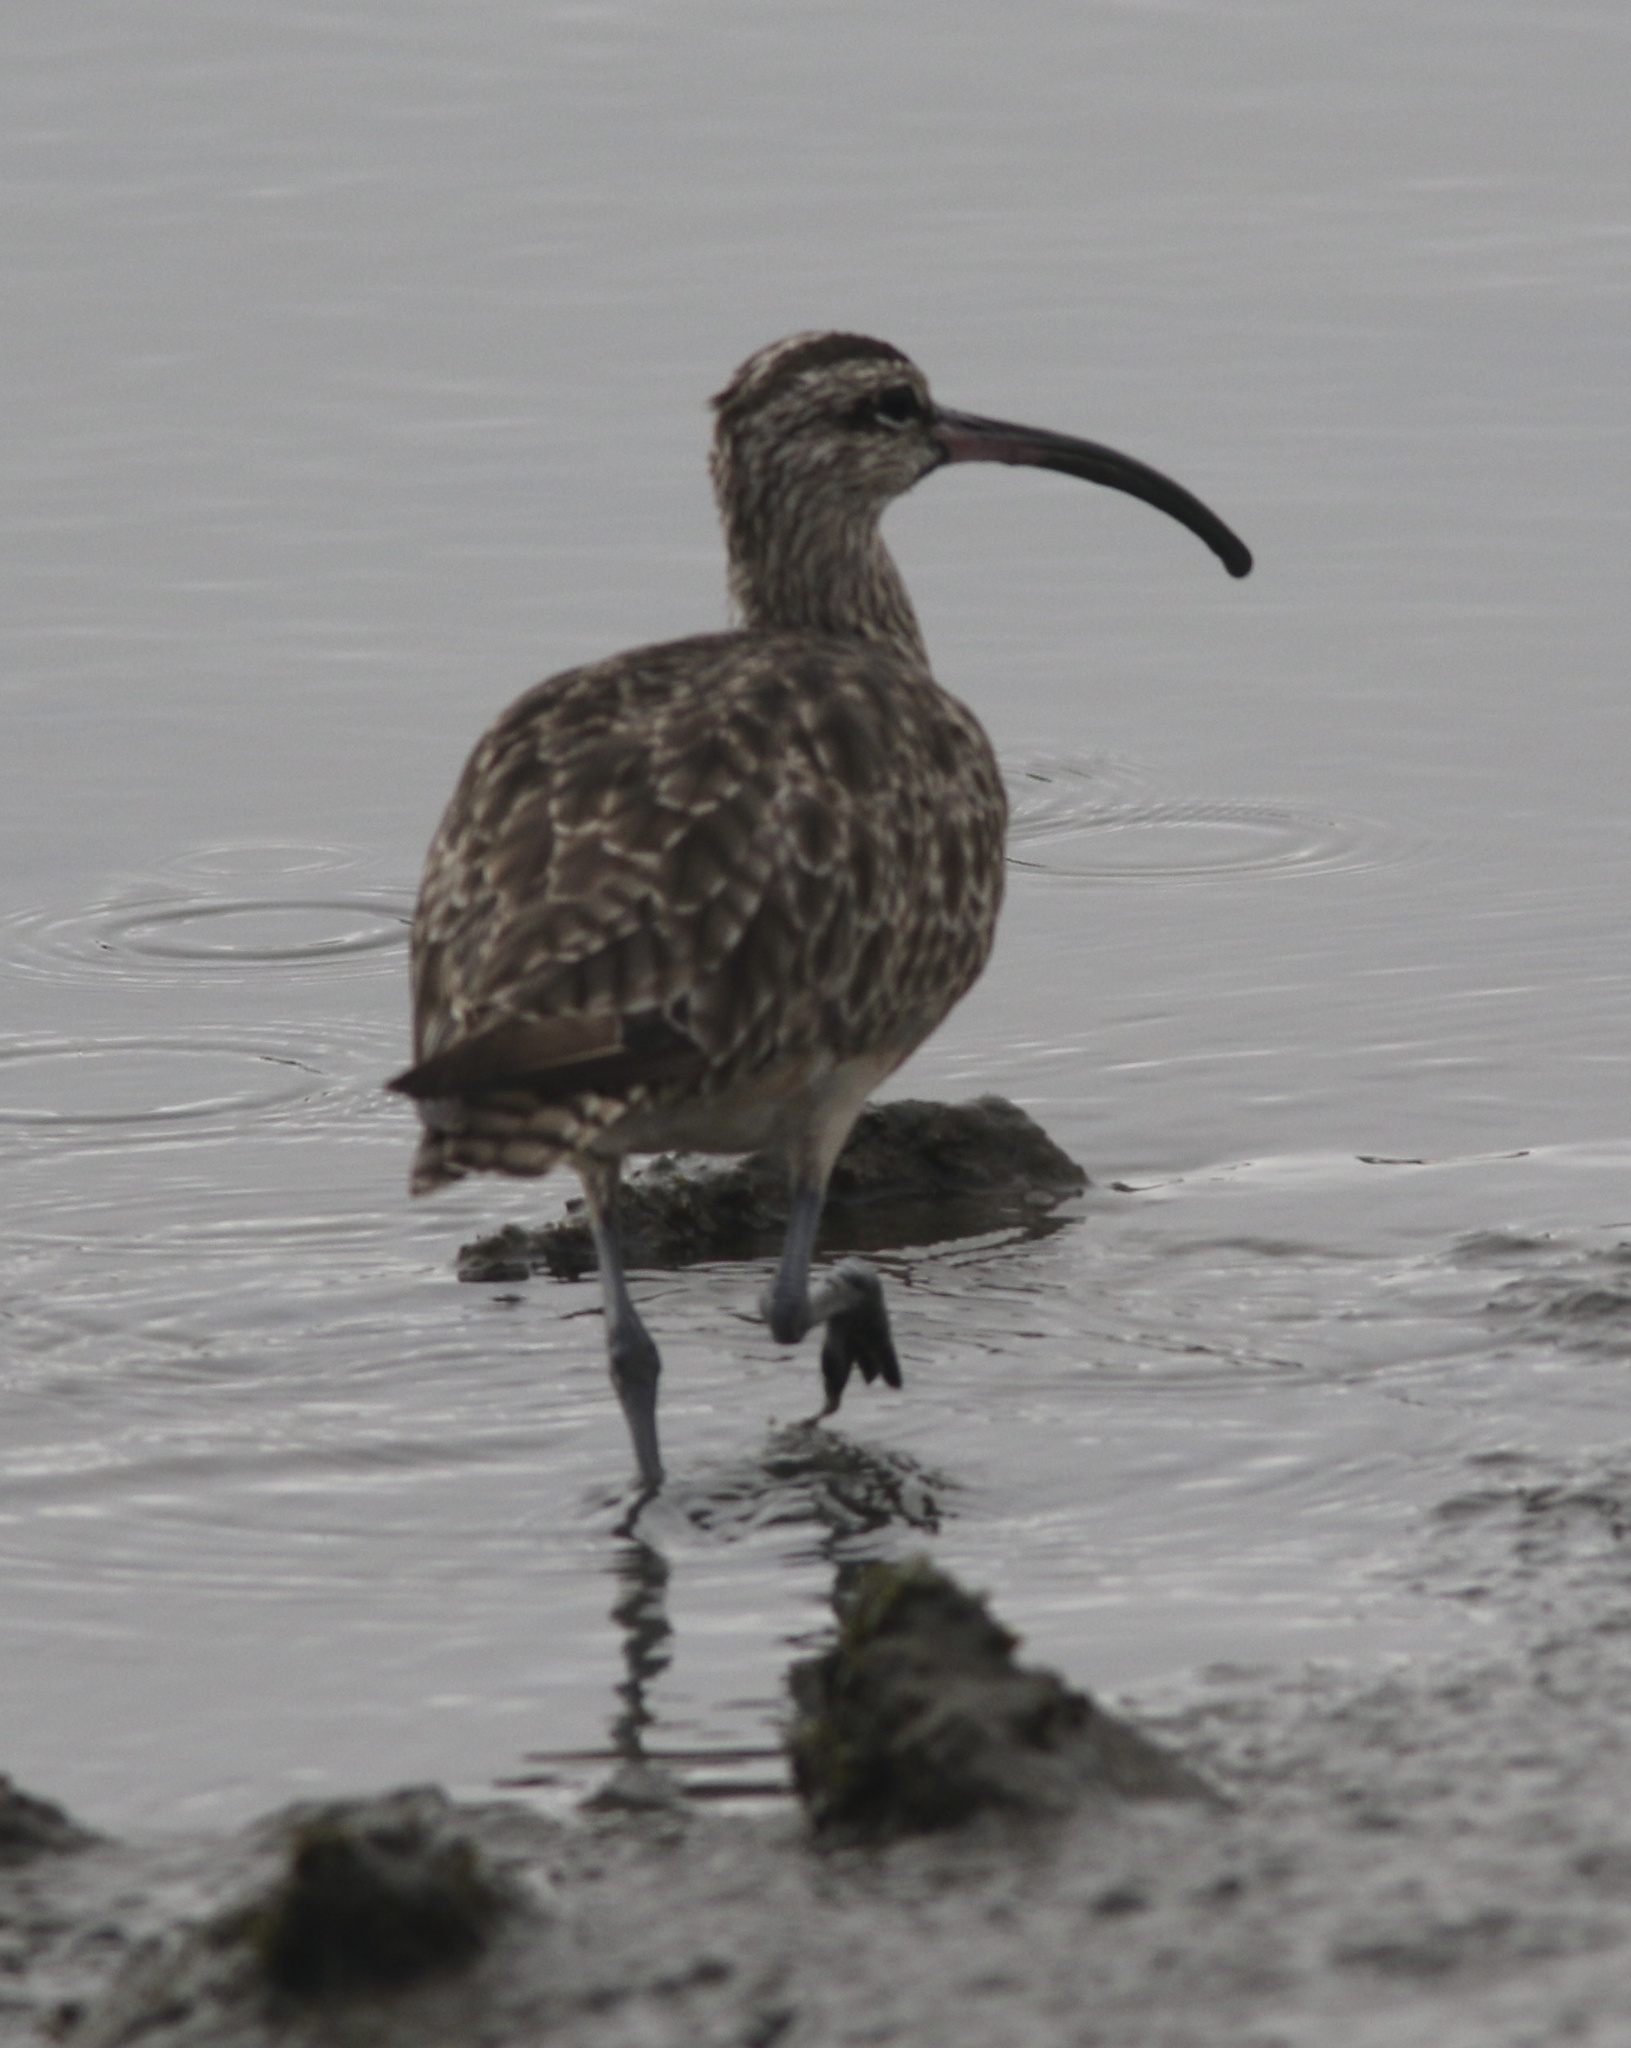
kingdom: Animalia
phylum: Chordata
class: Aves
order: Charadriiformes
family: Scolopacidae
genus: Numenius
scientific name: Numenius phaeopus
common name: Whimbrel
